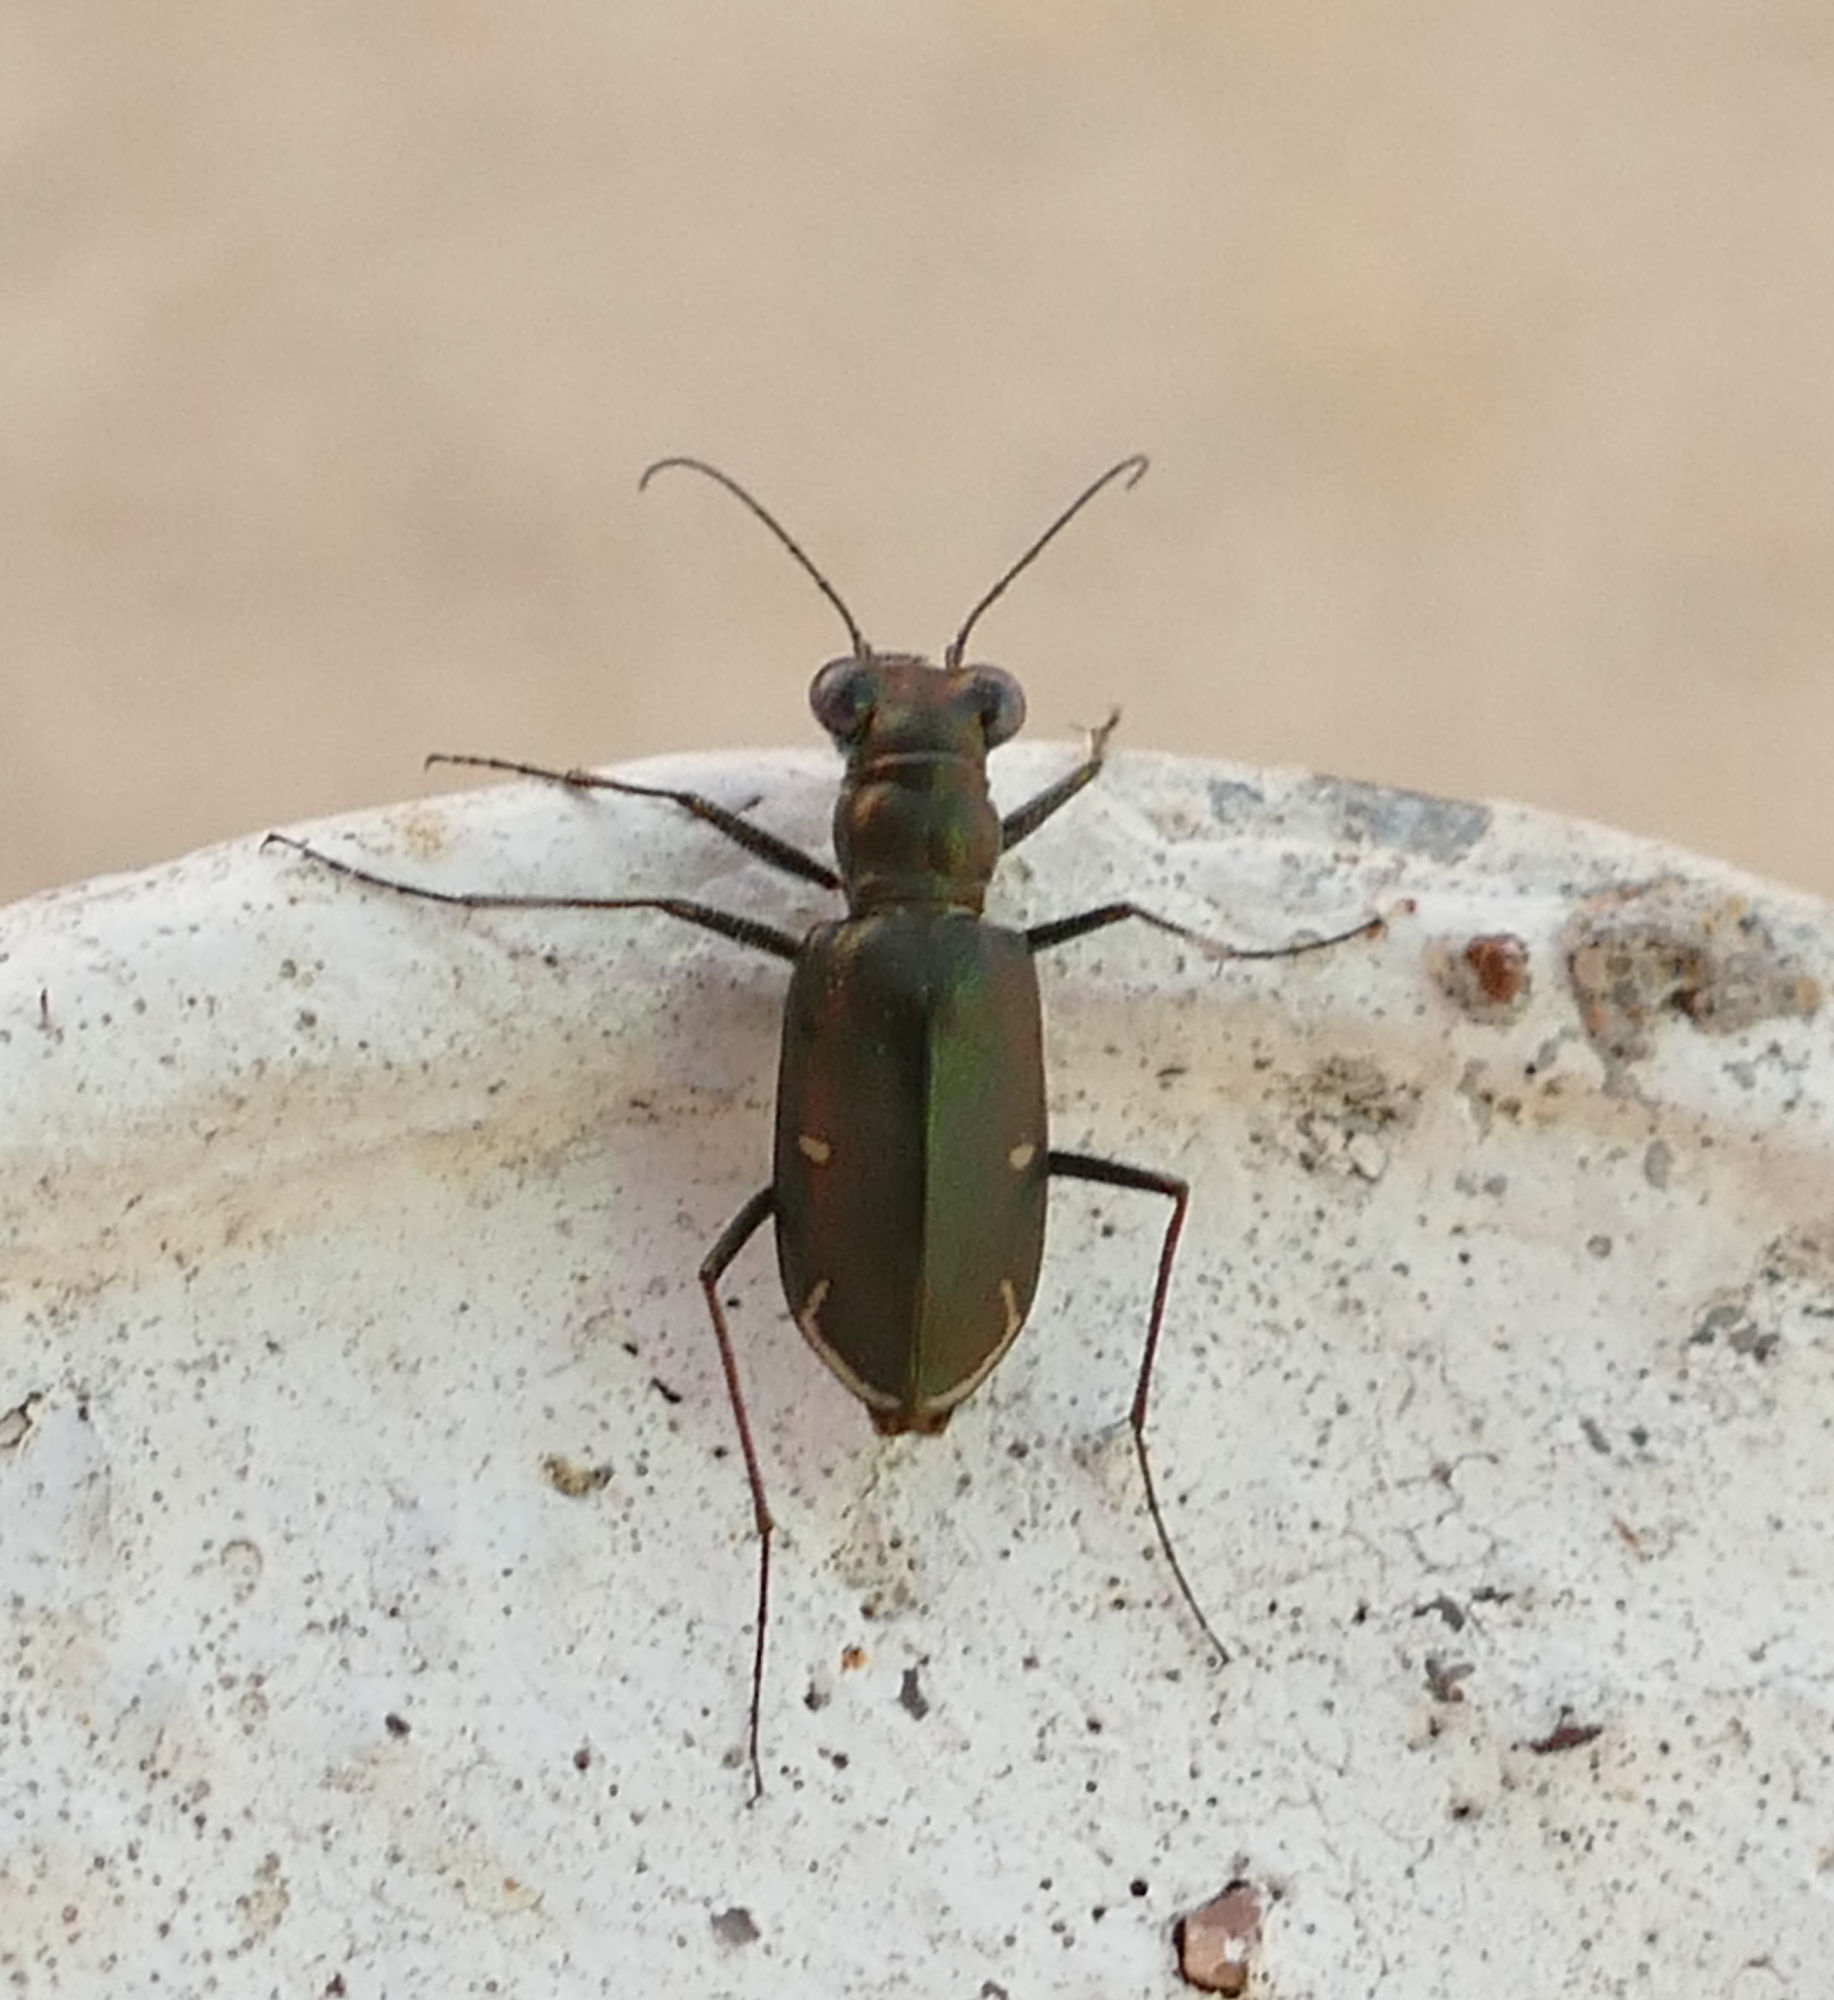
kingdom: Animalia
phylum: Arthropoda
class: Insecta
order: Coleoptera
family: Carabidae
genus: Eunota
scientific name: Eunota severa
